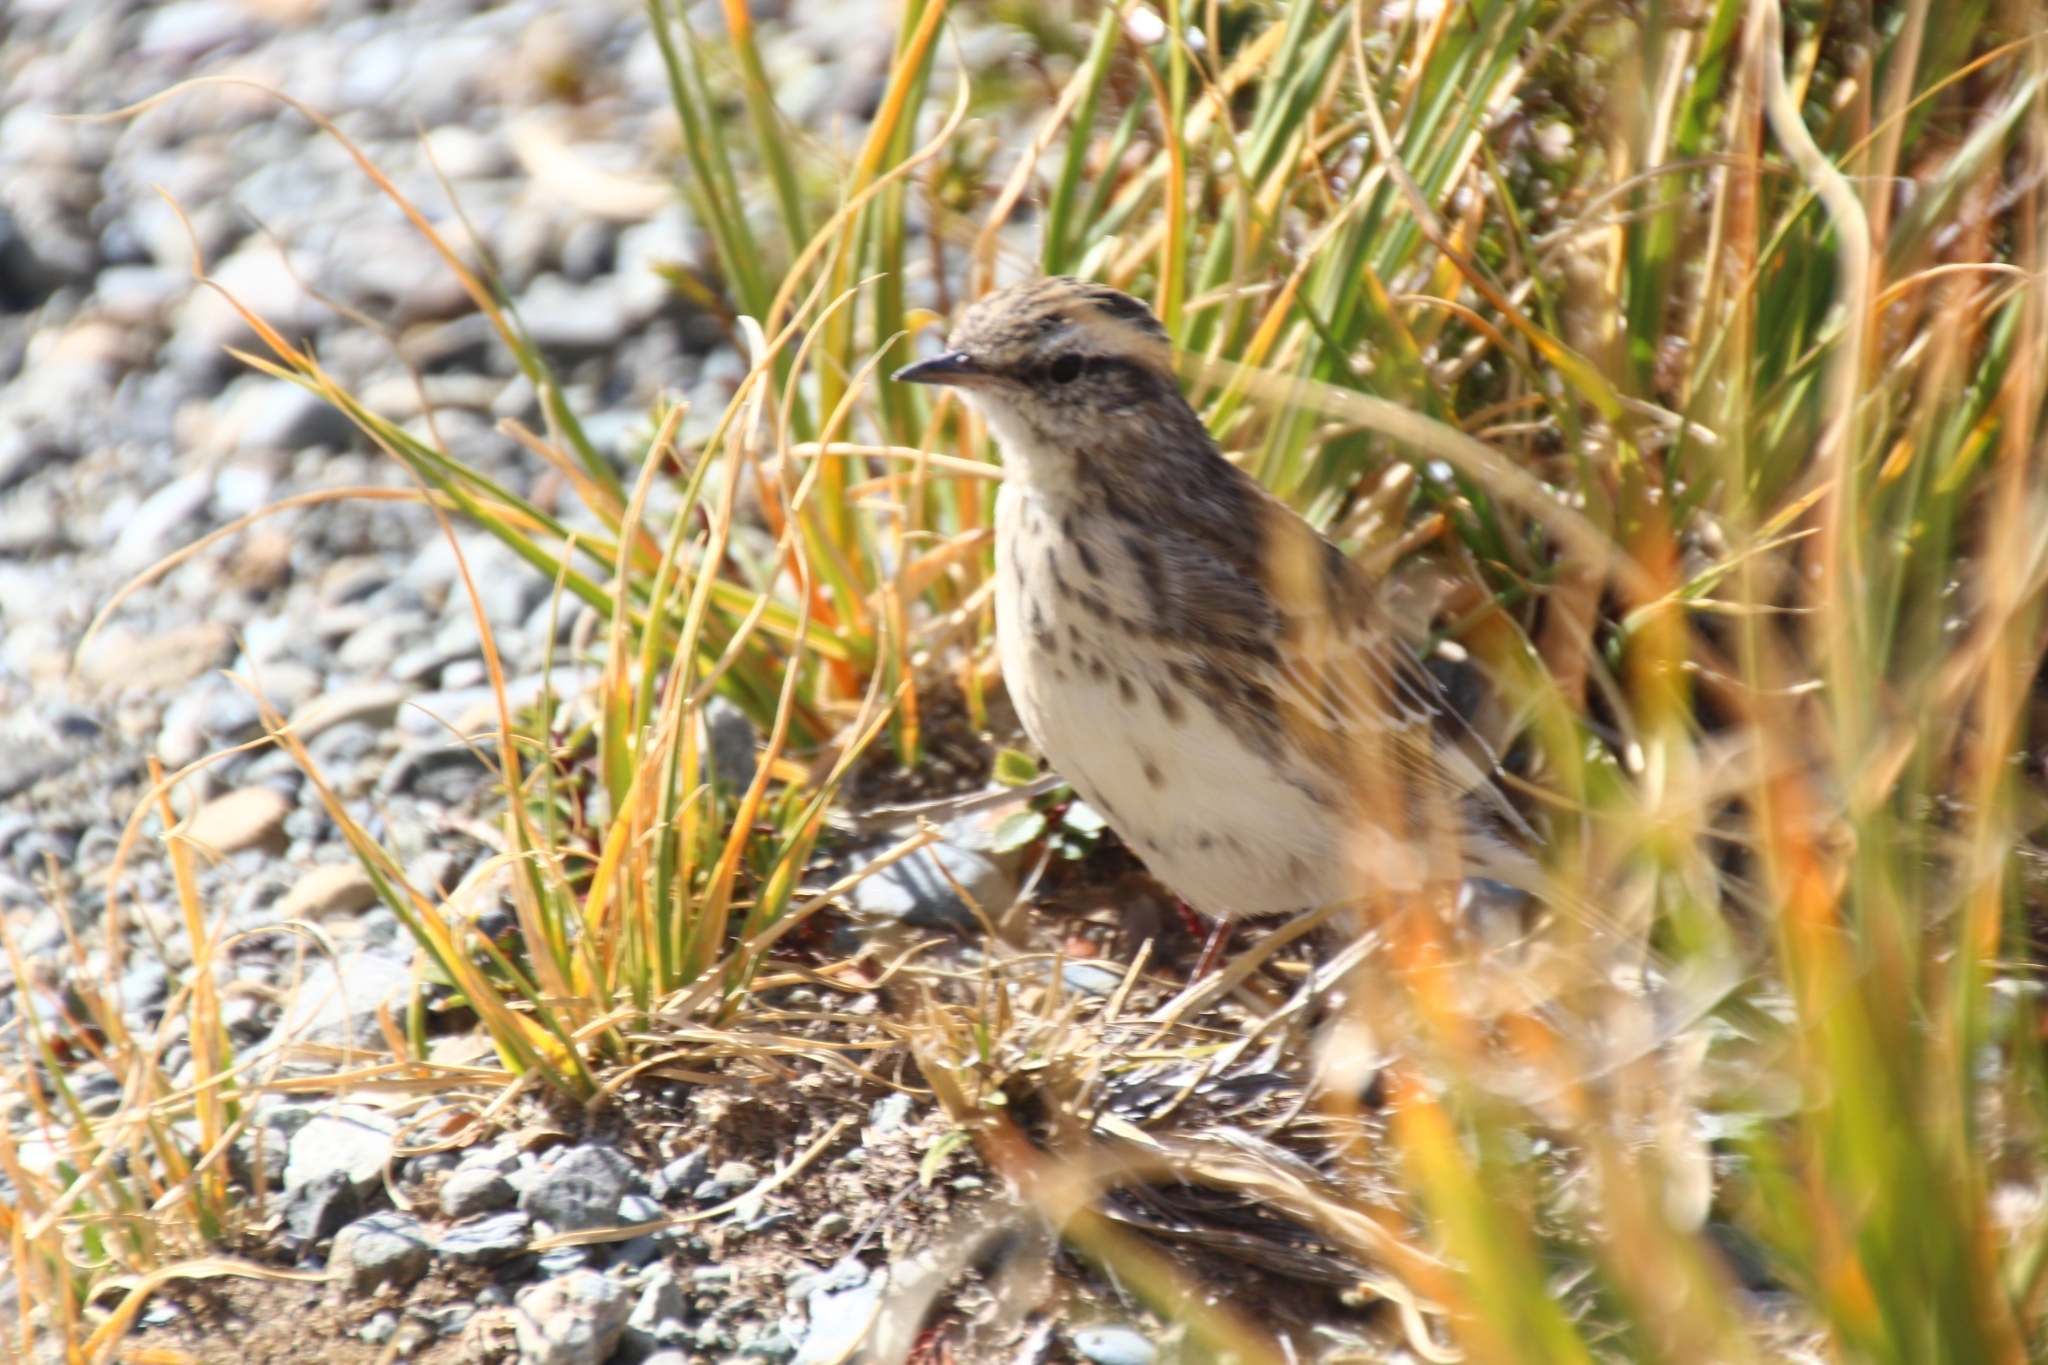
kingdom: Animalia
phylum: Chordata
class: Aves
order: Passeriformes
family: Motacillidae
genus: Anthus
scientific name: Anthus novaeseelandiae
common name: New zealand pipit
